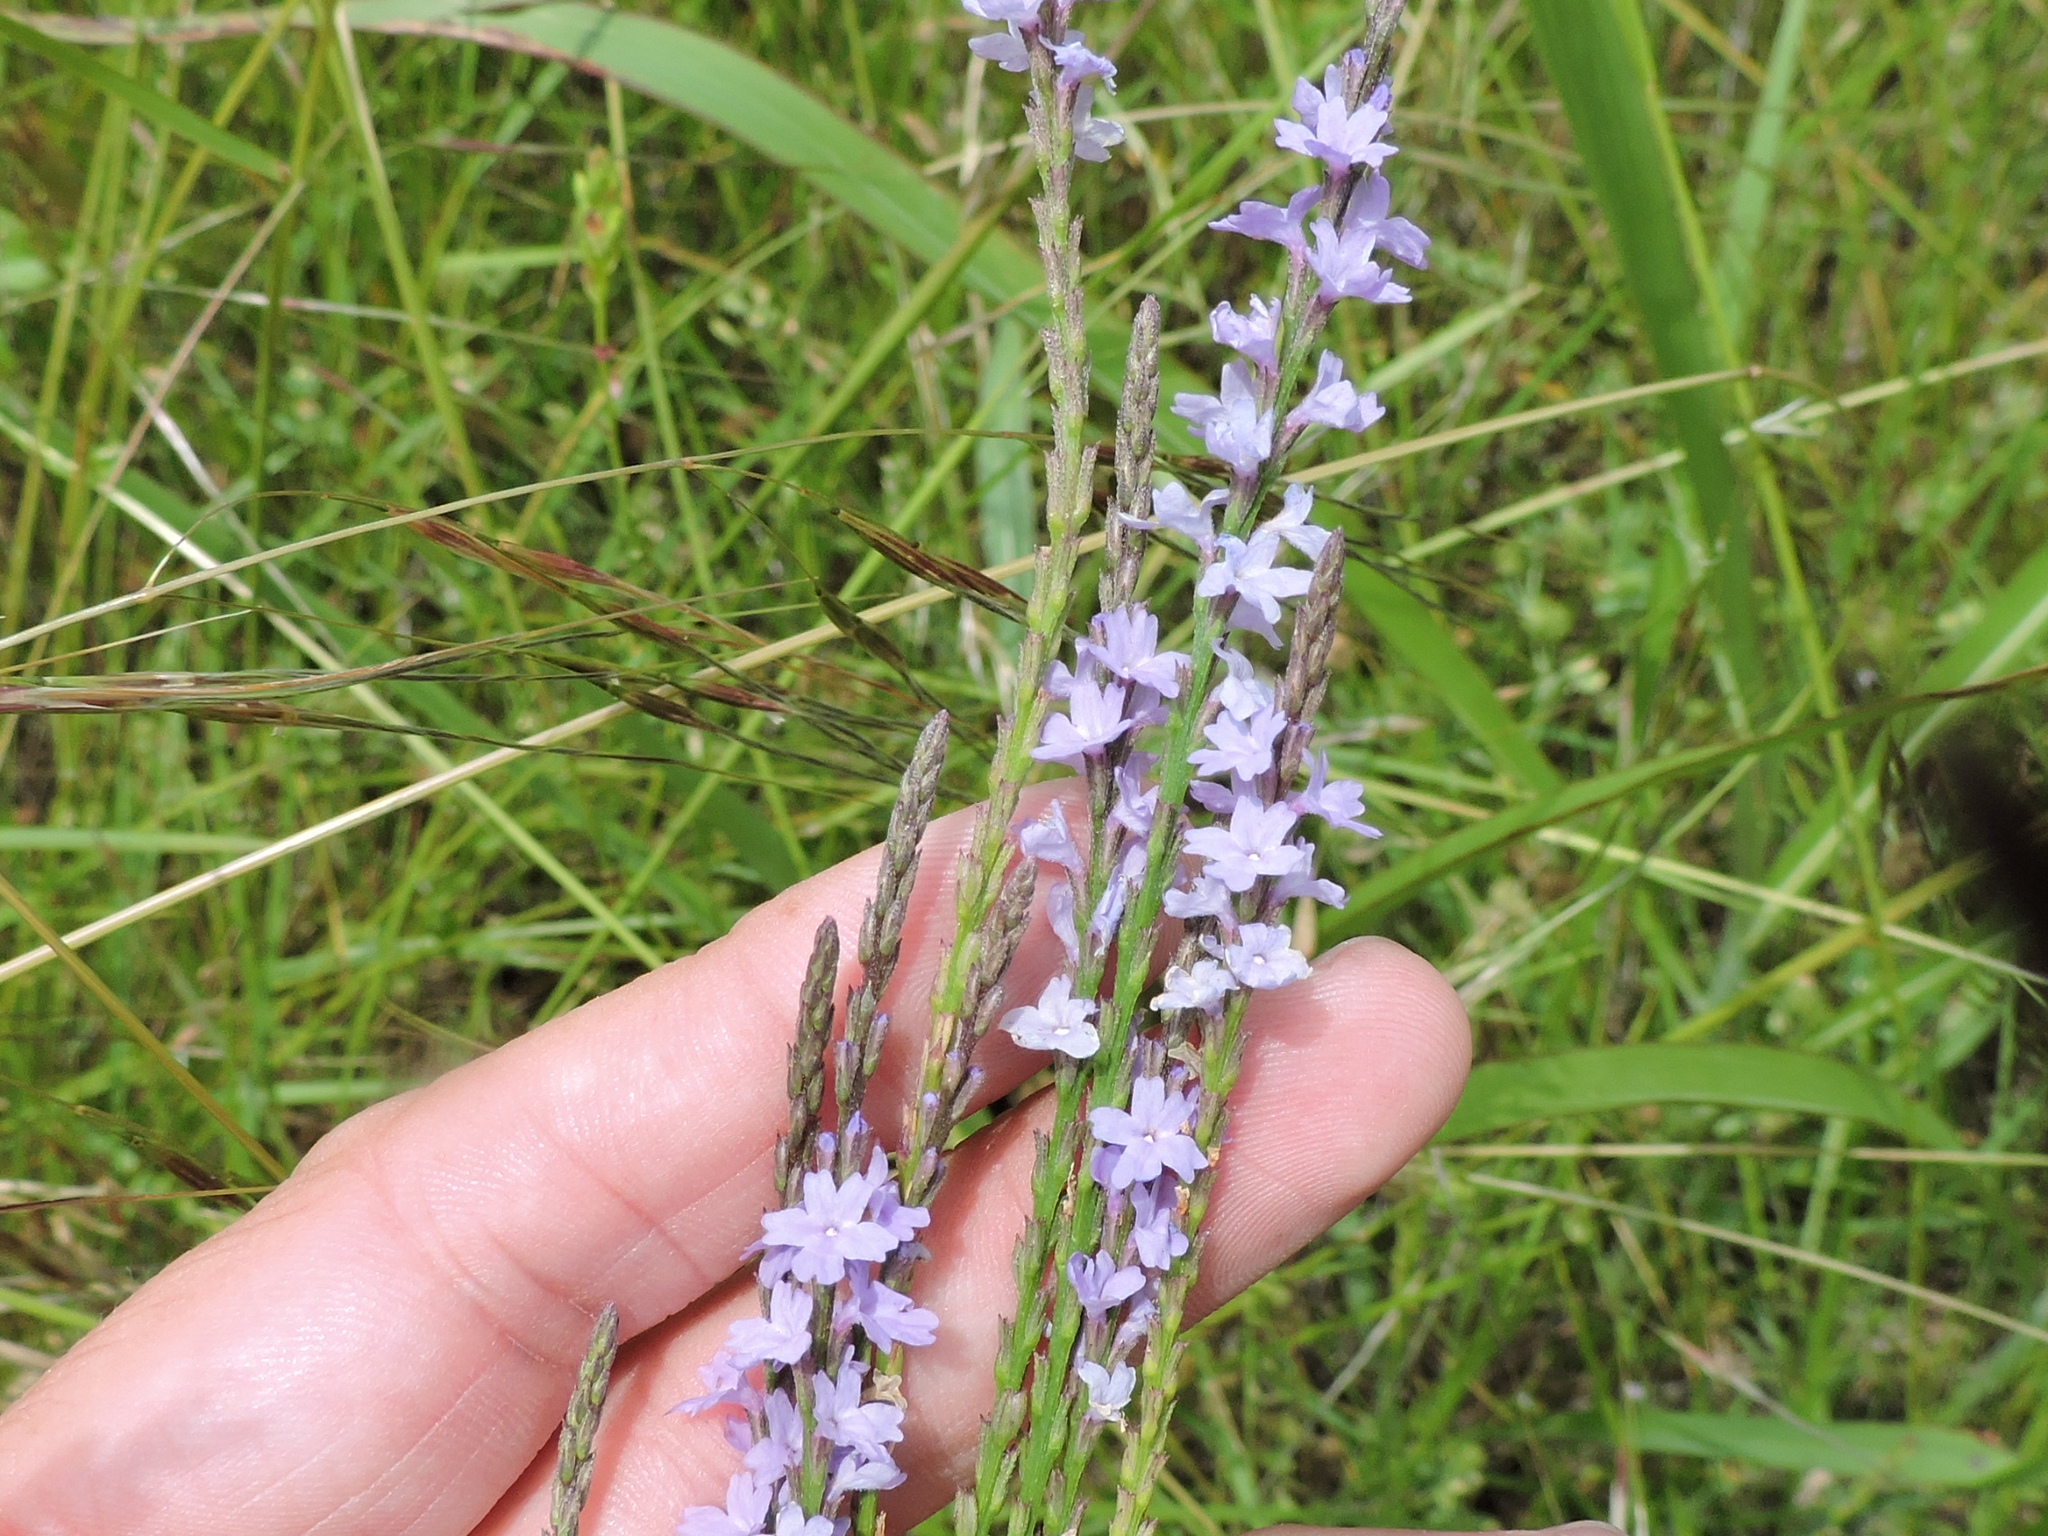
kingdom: Plantae
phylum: Tracheophyta
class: Magnoliopsida
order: Lamiales
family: Verbenaceae
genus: Verbena
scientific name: Verbena halei
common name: Texas vervain
